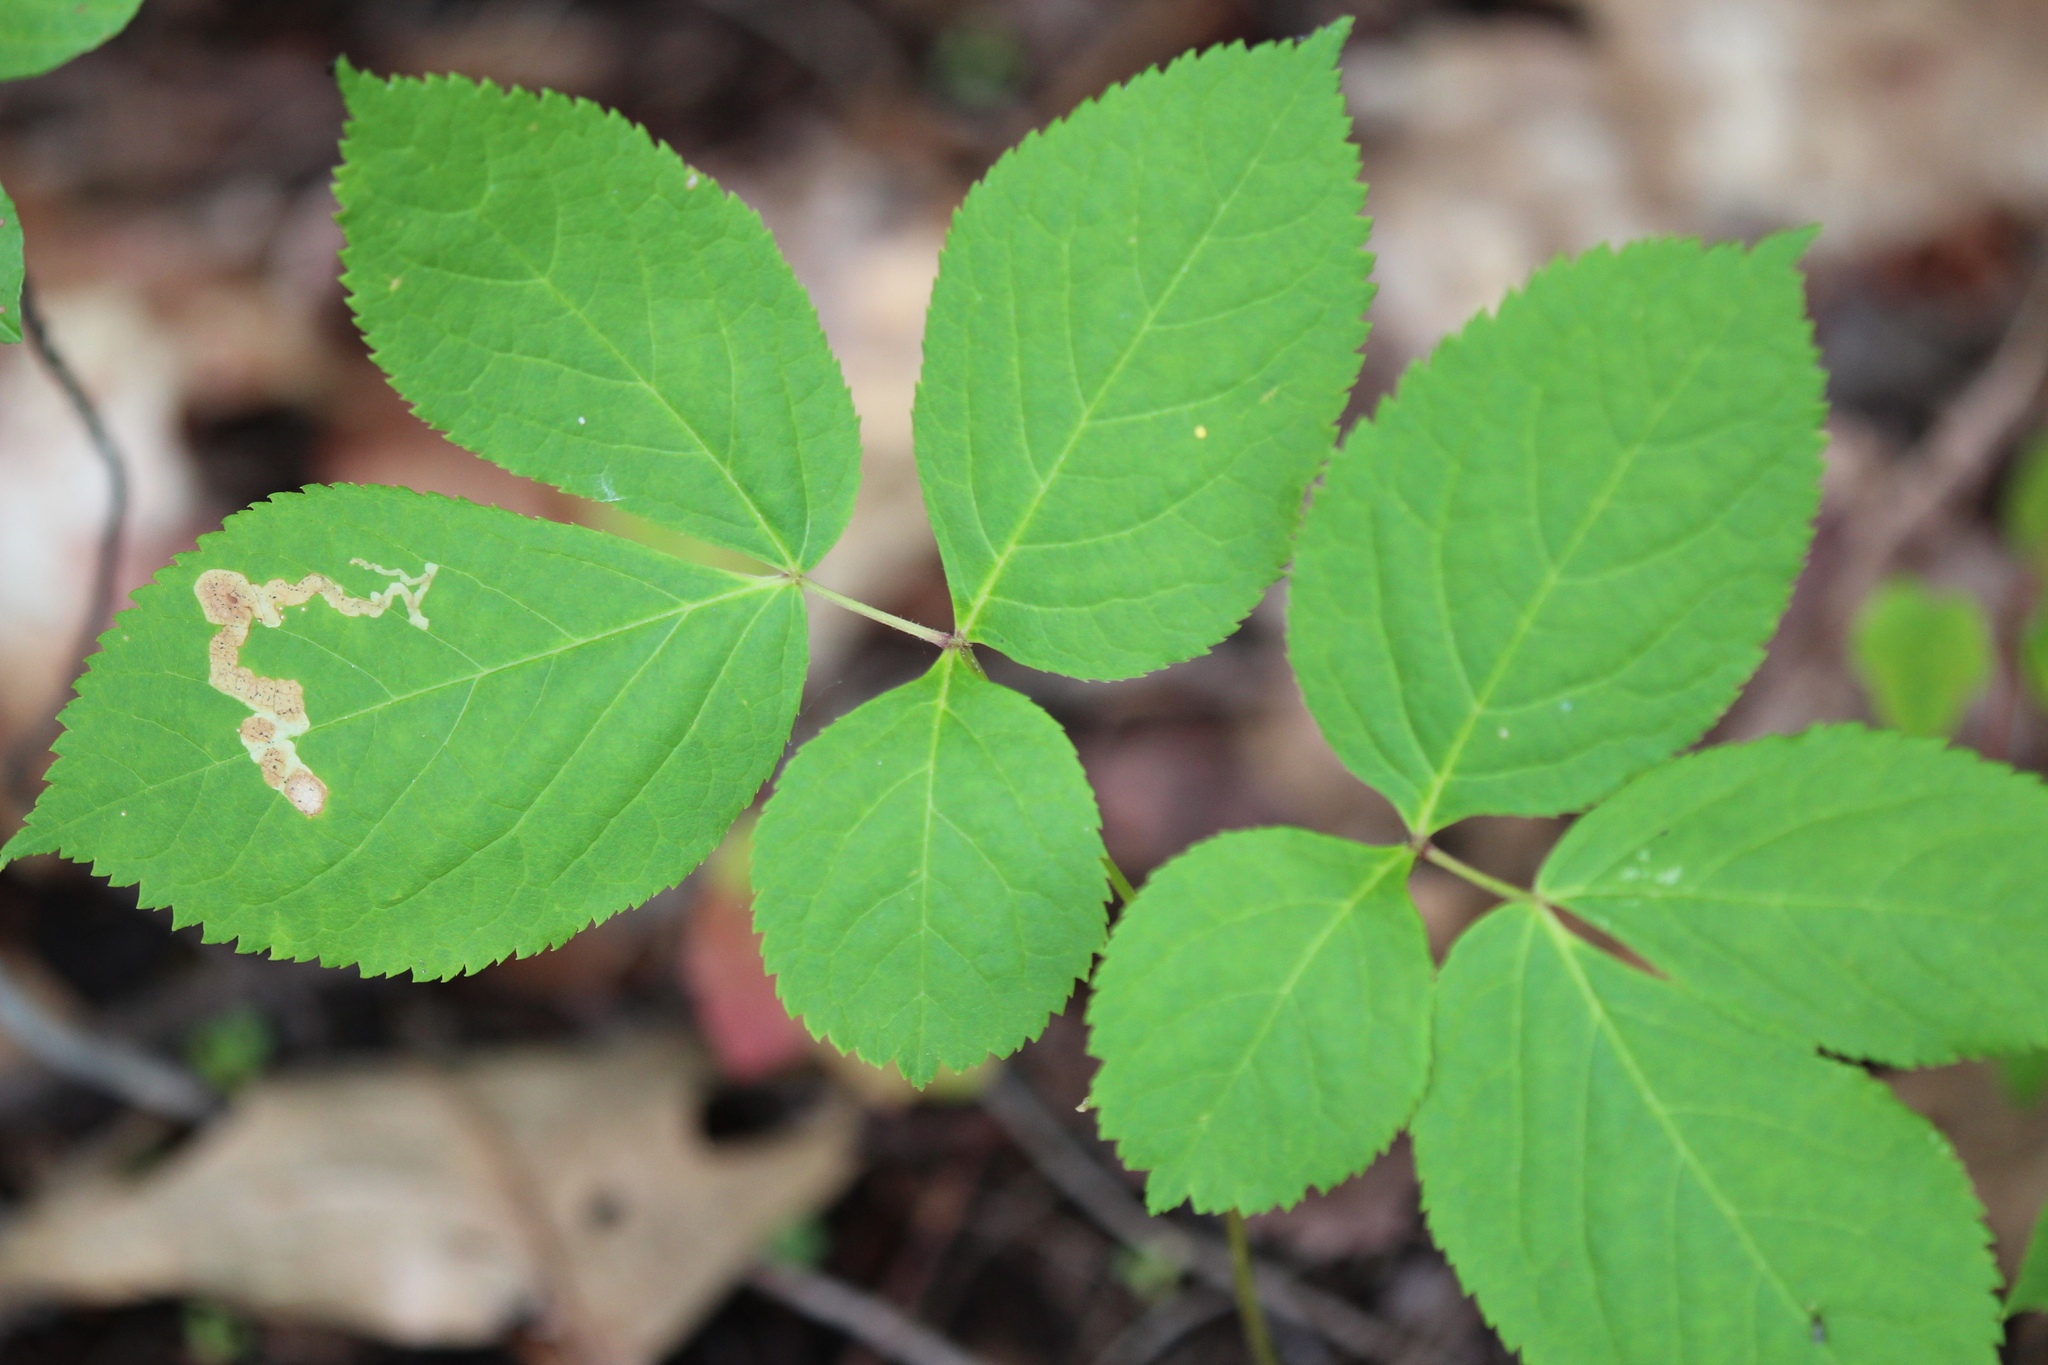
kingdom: Plantae
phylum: Tracheophyta
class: Magnoliopsida
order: Apiales
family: Araliaceae
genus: Aralia
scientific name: Aralia nudicaulis
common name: Wild sarsaparilla
